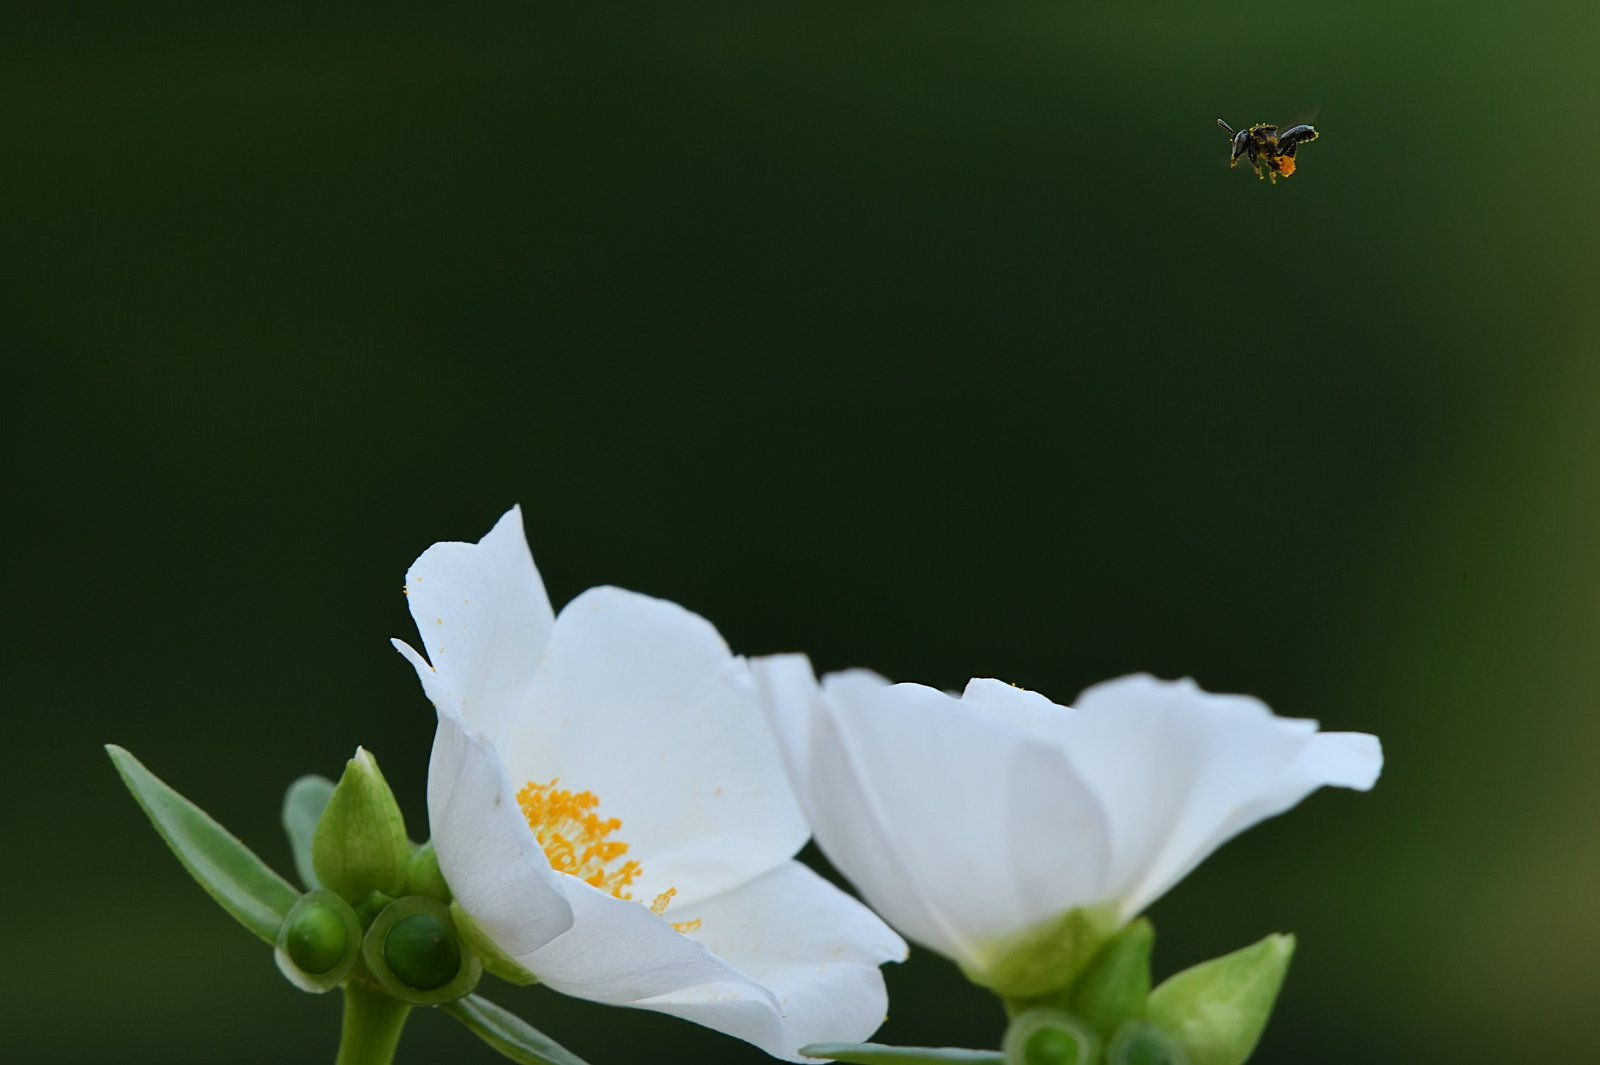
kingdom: Plantae
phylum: Tracheophyta
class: Magnoliopsida
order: Caryophyllales
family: Portulacaceae
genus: Portulaca
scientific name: Portulaca umbraticola
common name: Wingpod purslane
